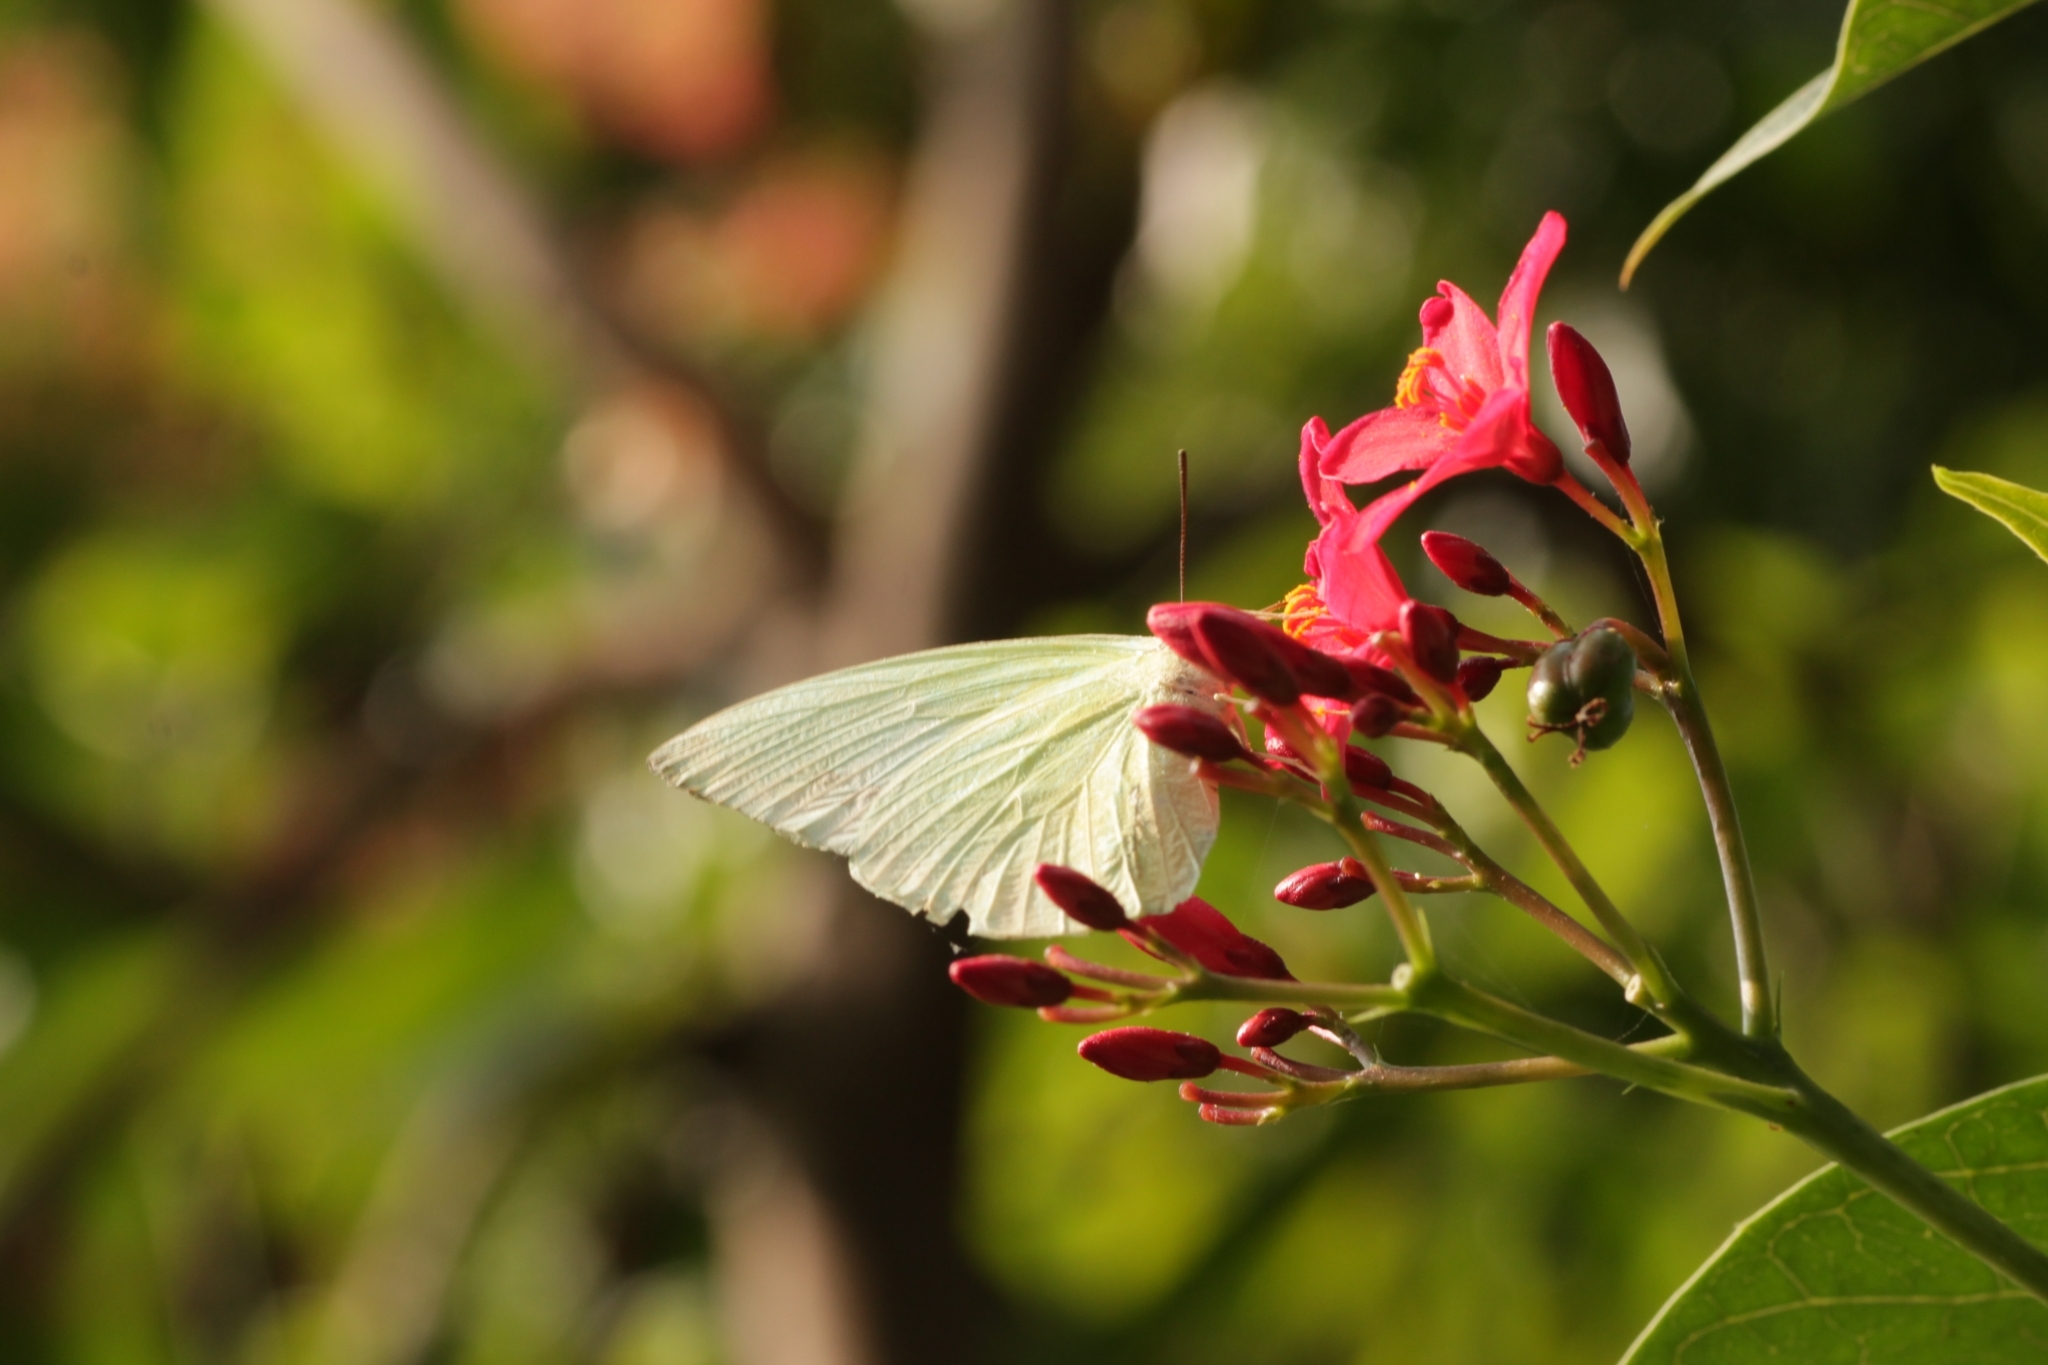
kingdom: Animalia
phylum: Arthropoda
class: Insecta
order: Lepidoptera
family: Pieridae
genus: Catopsilia
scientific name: Catopsilia pomona
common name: Common emigrant
